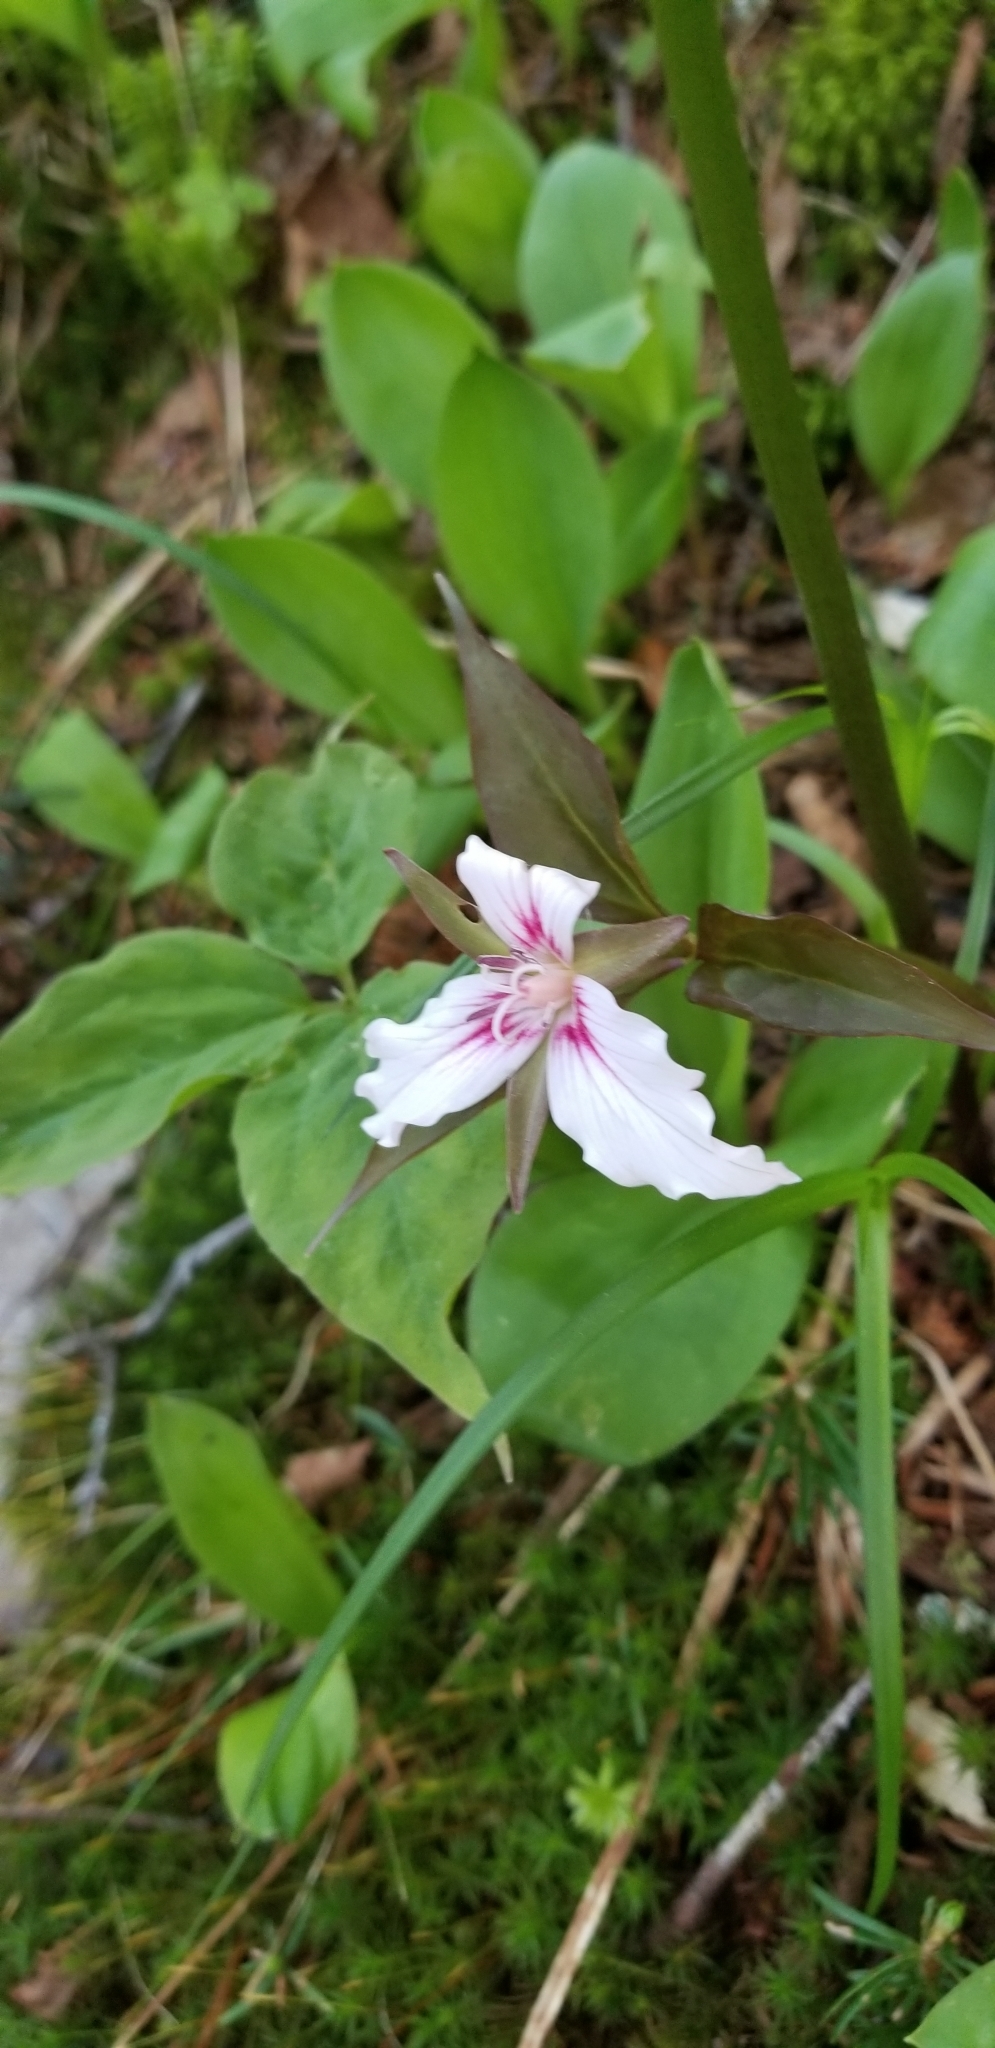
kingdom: Plantae
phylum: Tracheophyta
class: Liliopsida
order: Liliales
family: Melanthiaceae
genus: Trillium
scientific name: Trillium undulatum
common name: Paint trillium
